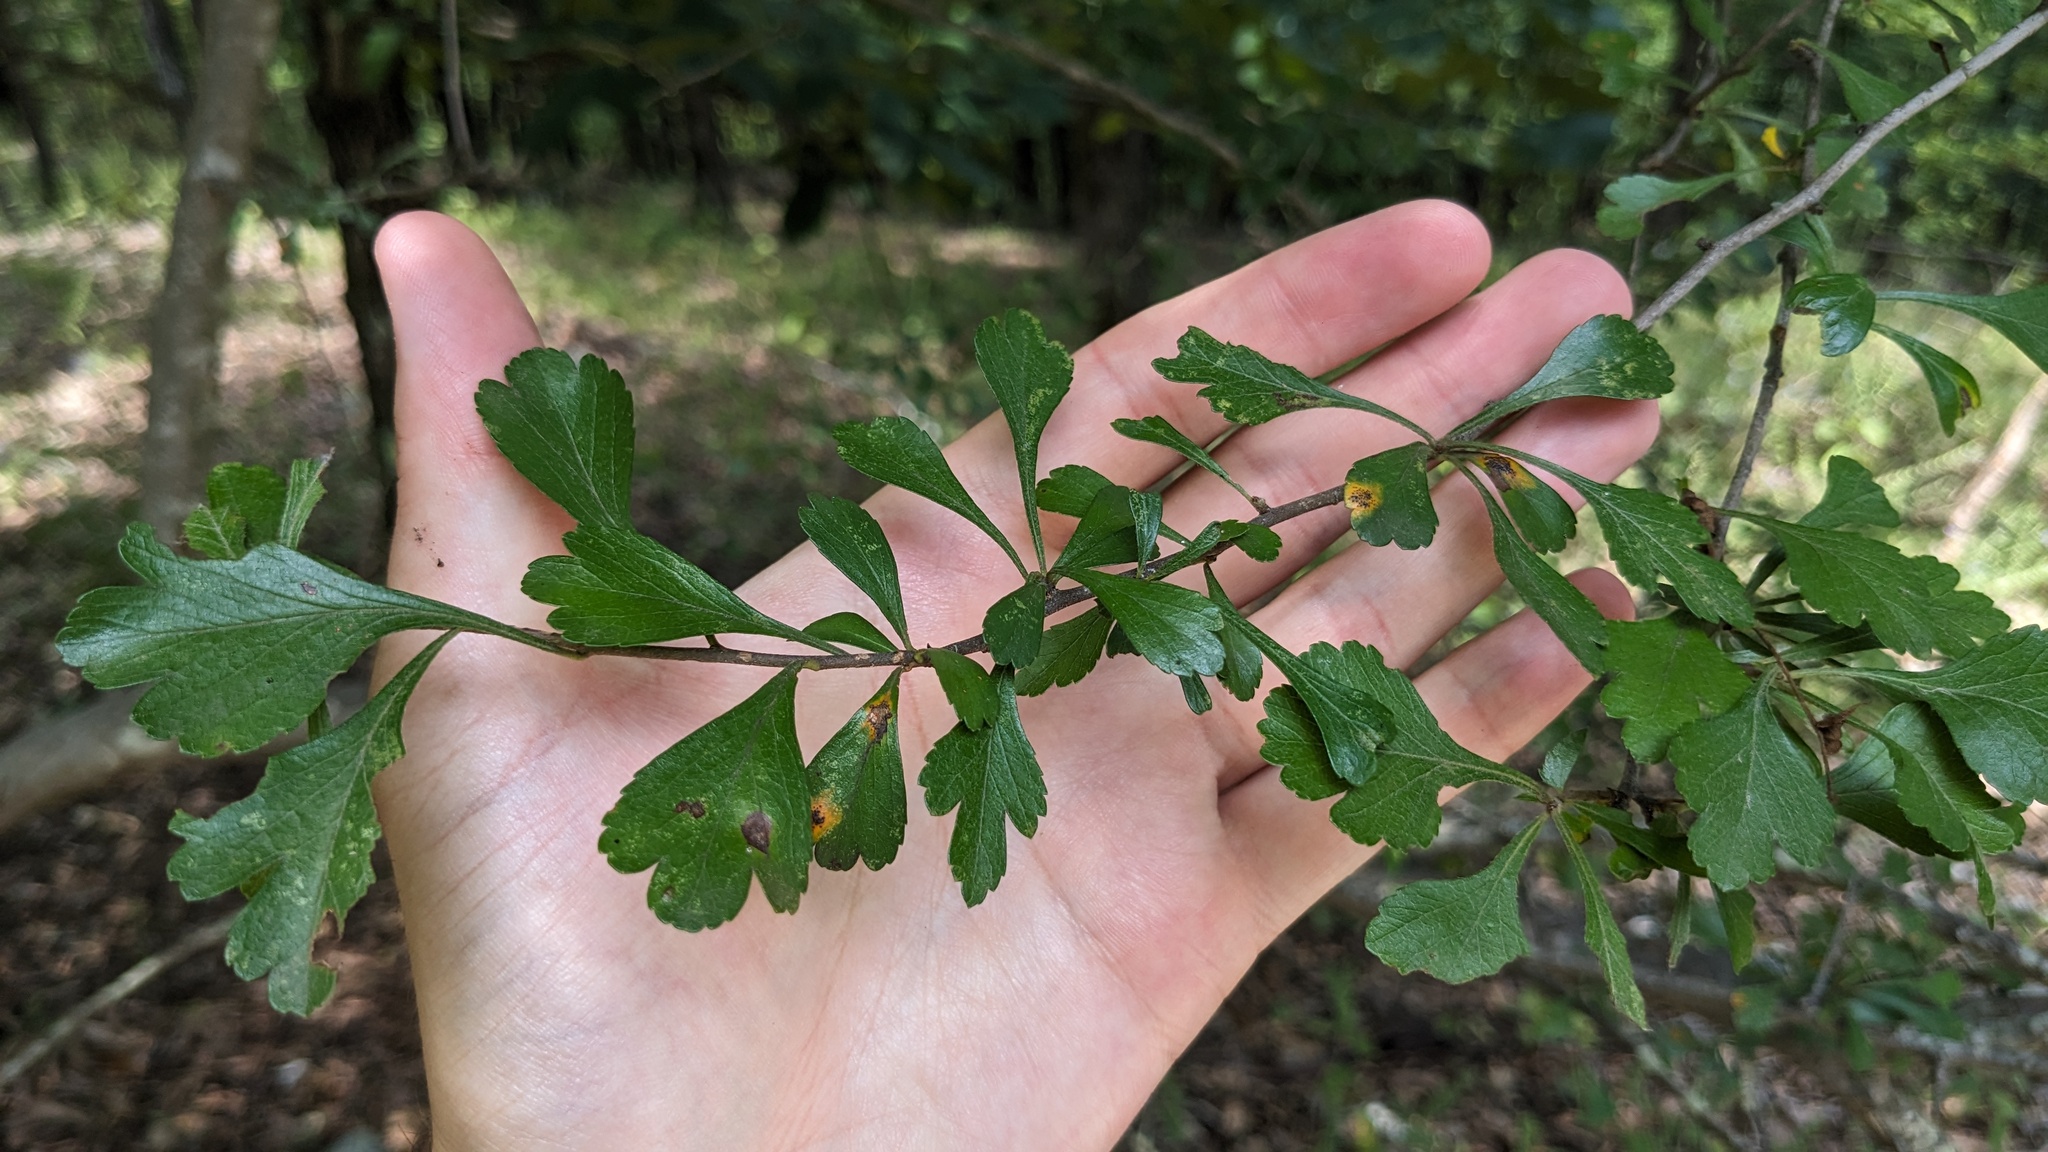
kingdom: Plantae
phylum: Tracheophyta
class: Magnoliopsida
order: Rosales
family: Rosaceae
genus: Crataegus
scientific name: Crataegus spathulata
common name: Littlehip hawthorn
